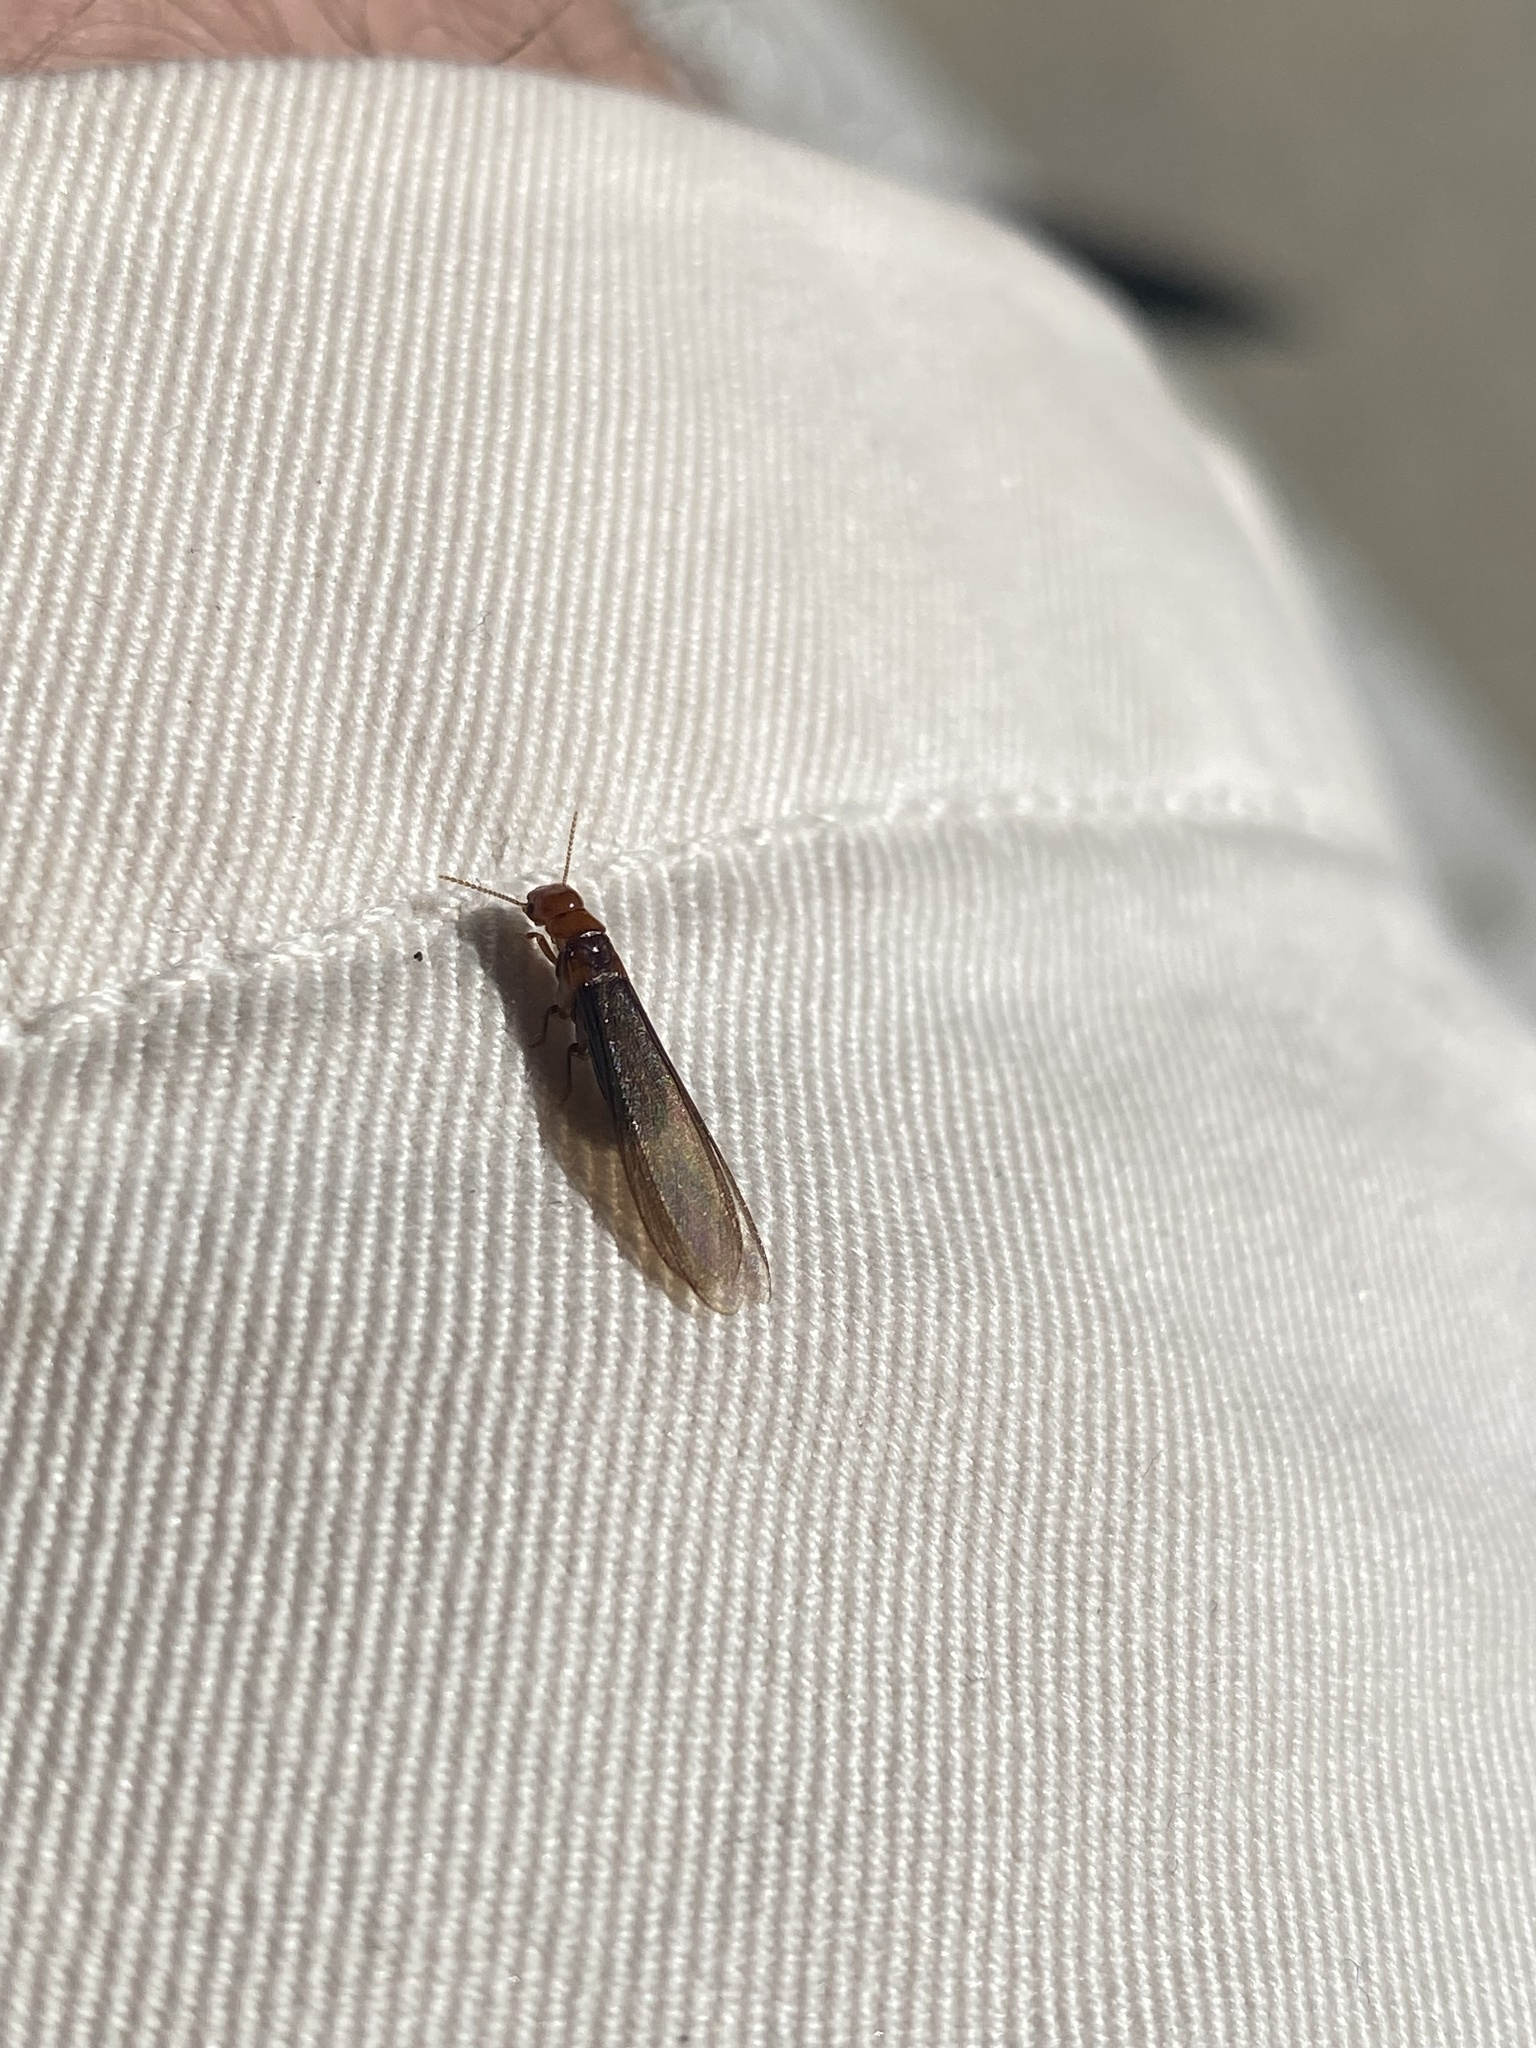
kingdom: Animalia
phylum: Arthropoda
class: Insecta
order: Blattodea
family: Kalotermitidae
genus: Incisitermes
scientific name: Incisitermes minor
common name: Termite
